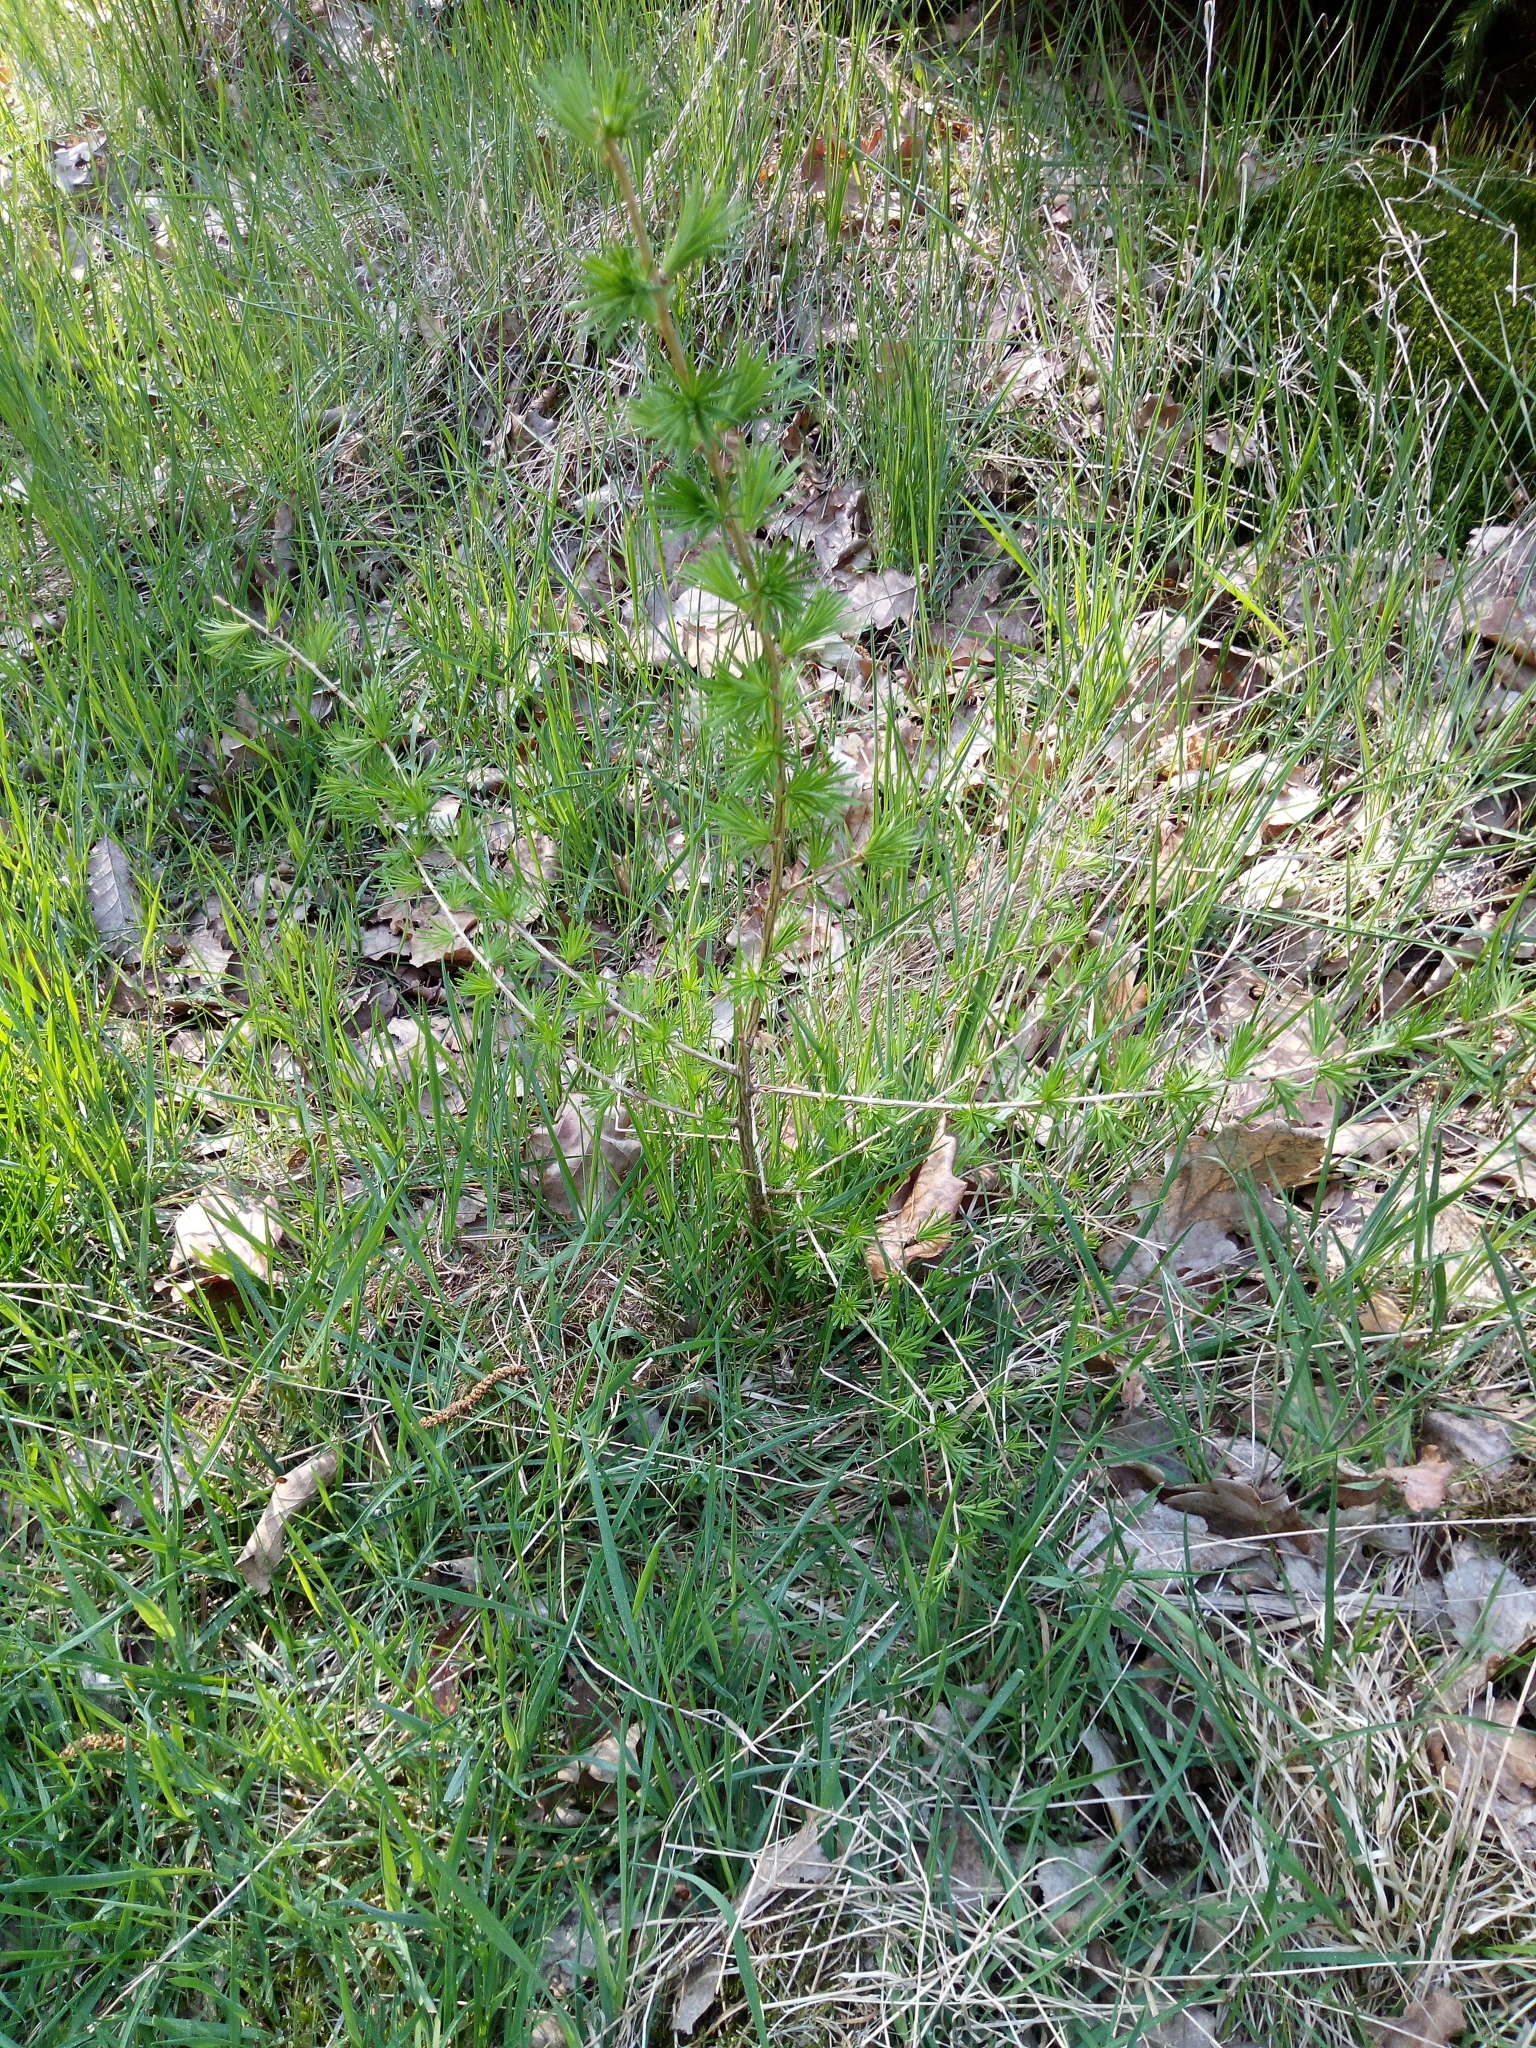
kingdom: Plantae
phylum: Tracheophyta
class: Pinopsida
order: Pinales
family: Pinaceae
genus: Larix
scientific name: Larix decidua
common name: European larch
